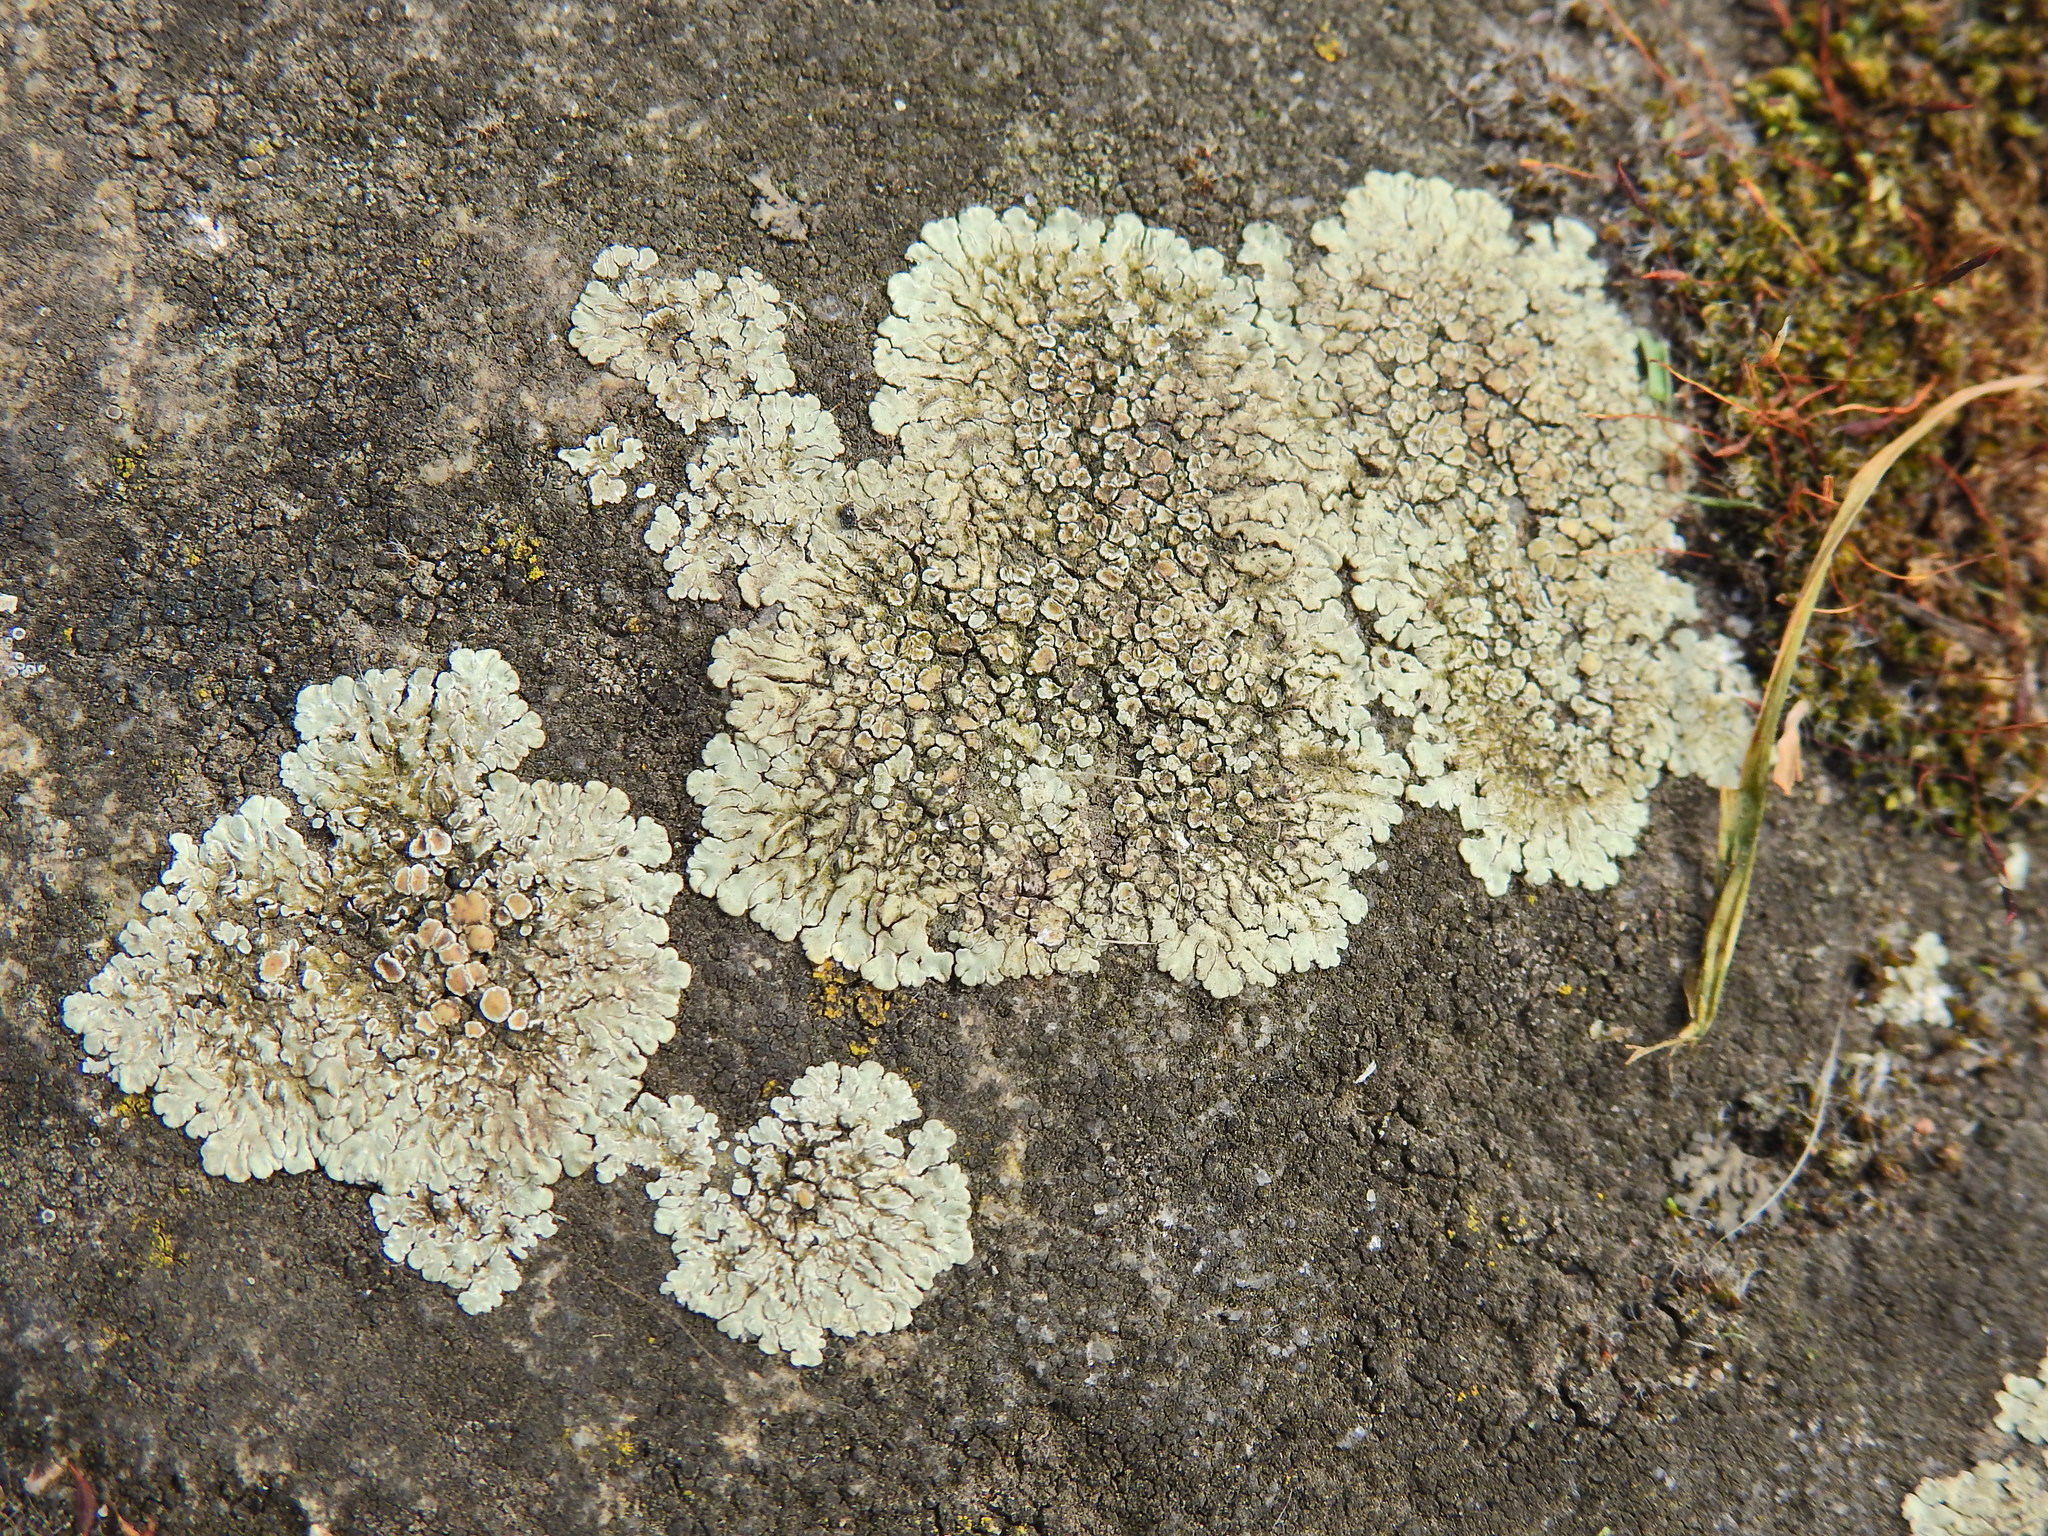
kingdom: Fungi
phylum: Ascomycota
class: Lecanoromycetes
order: Lecanorales
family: Lecanoraceae
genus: Protoparmeliopsis
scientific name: Protoparmeliopsis muralis
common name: Stonewall rim lichen
